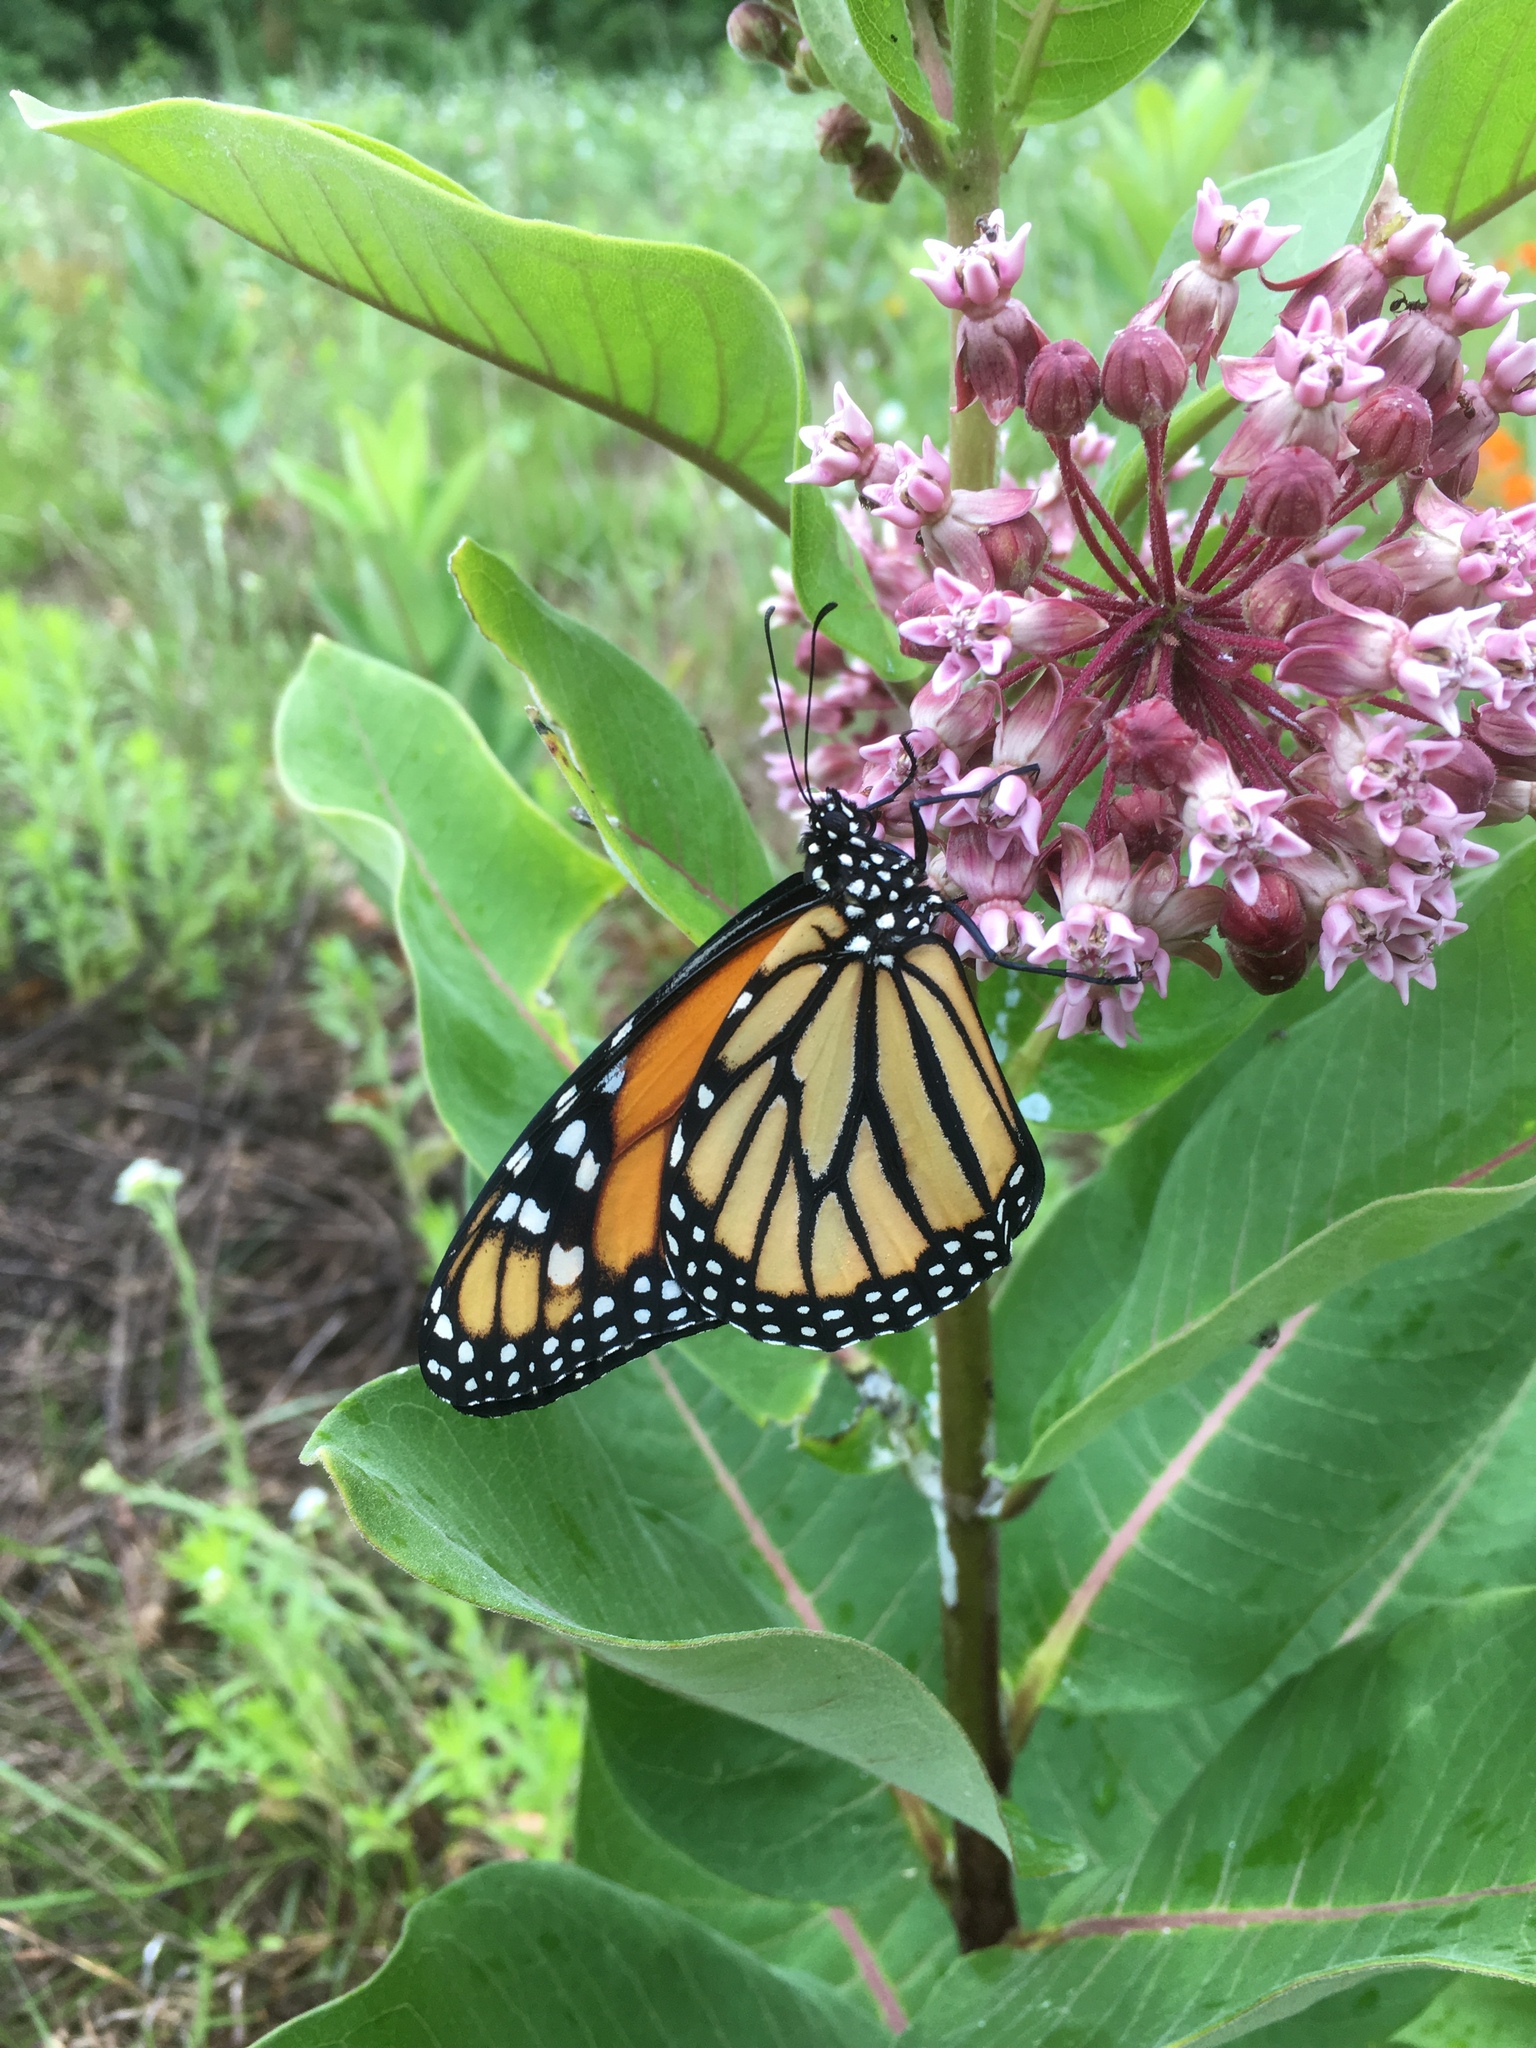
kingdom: Animalia
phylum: Arthropoda
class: Insecta
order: Lepidoptera
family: Nymphalidae
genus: Danaus
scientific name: Danaus plexippus
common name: Monarch
